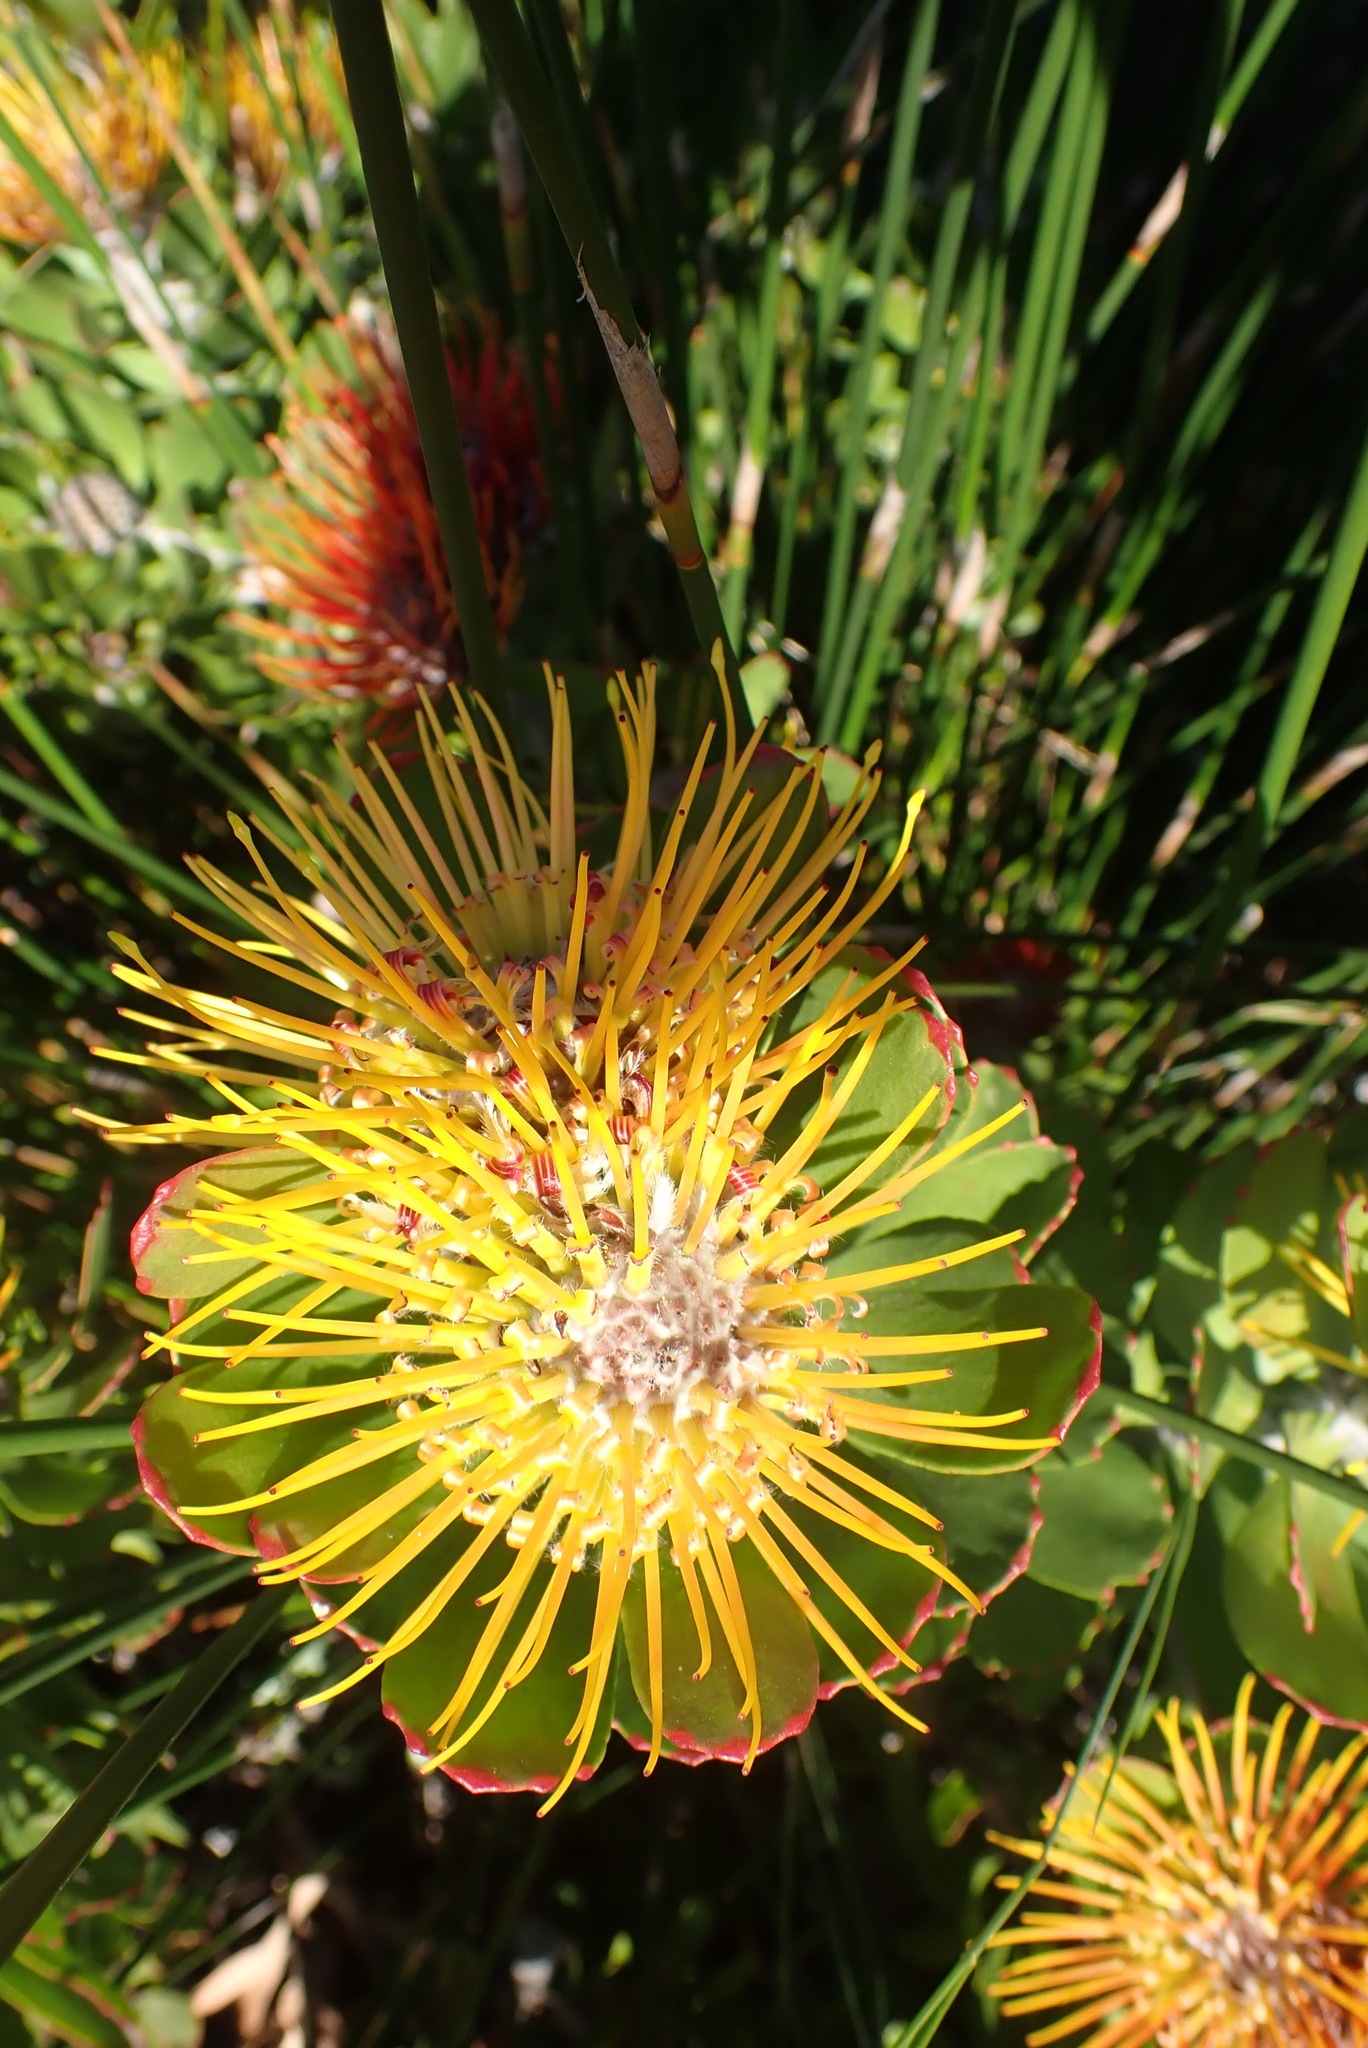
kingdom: Plantae
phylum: Tracheophyta
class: Magnoliopsida
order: Proteales
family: Proteaceae
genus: Leucospermum
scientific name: Leucospermum praecox
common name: Mossel bay pincushion
